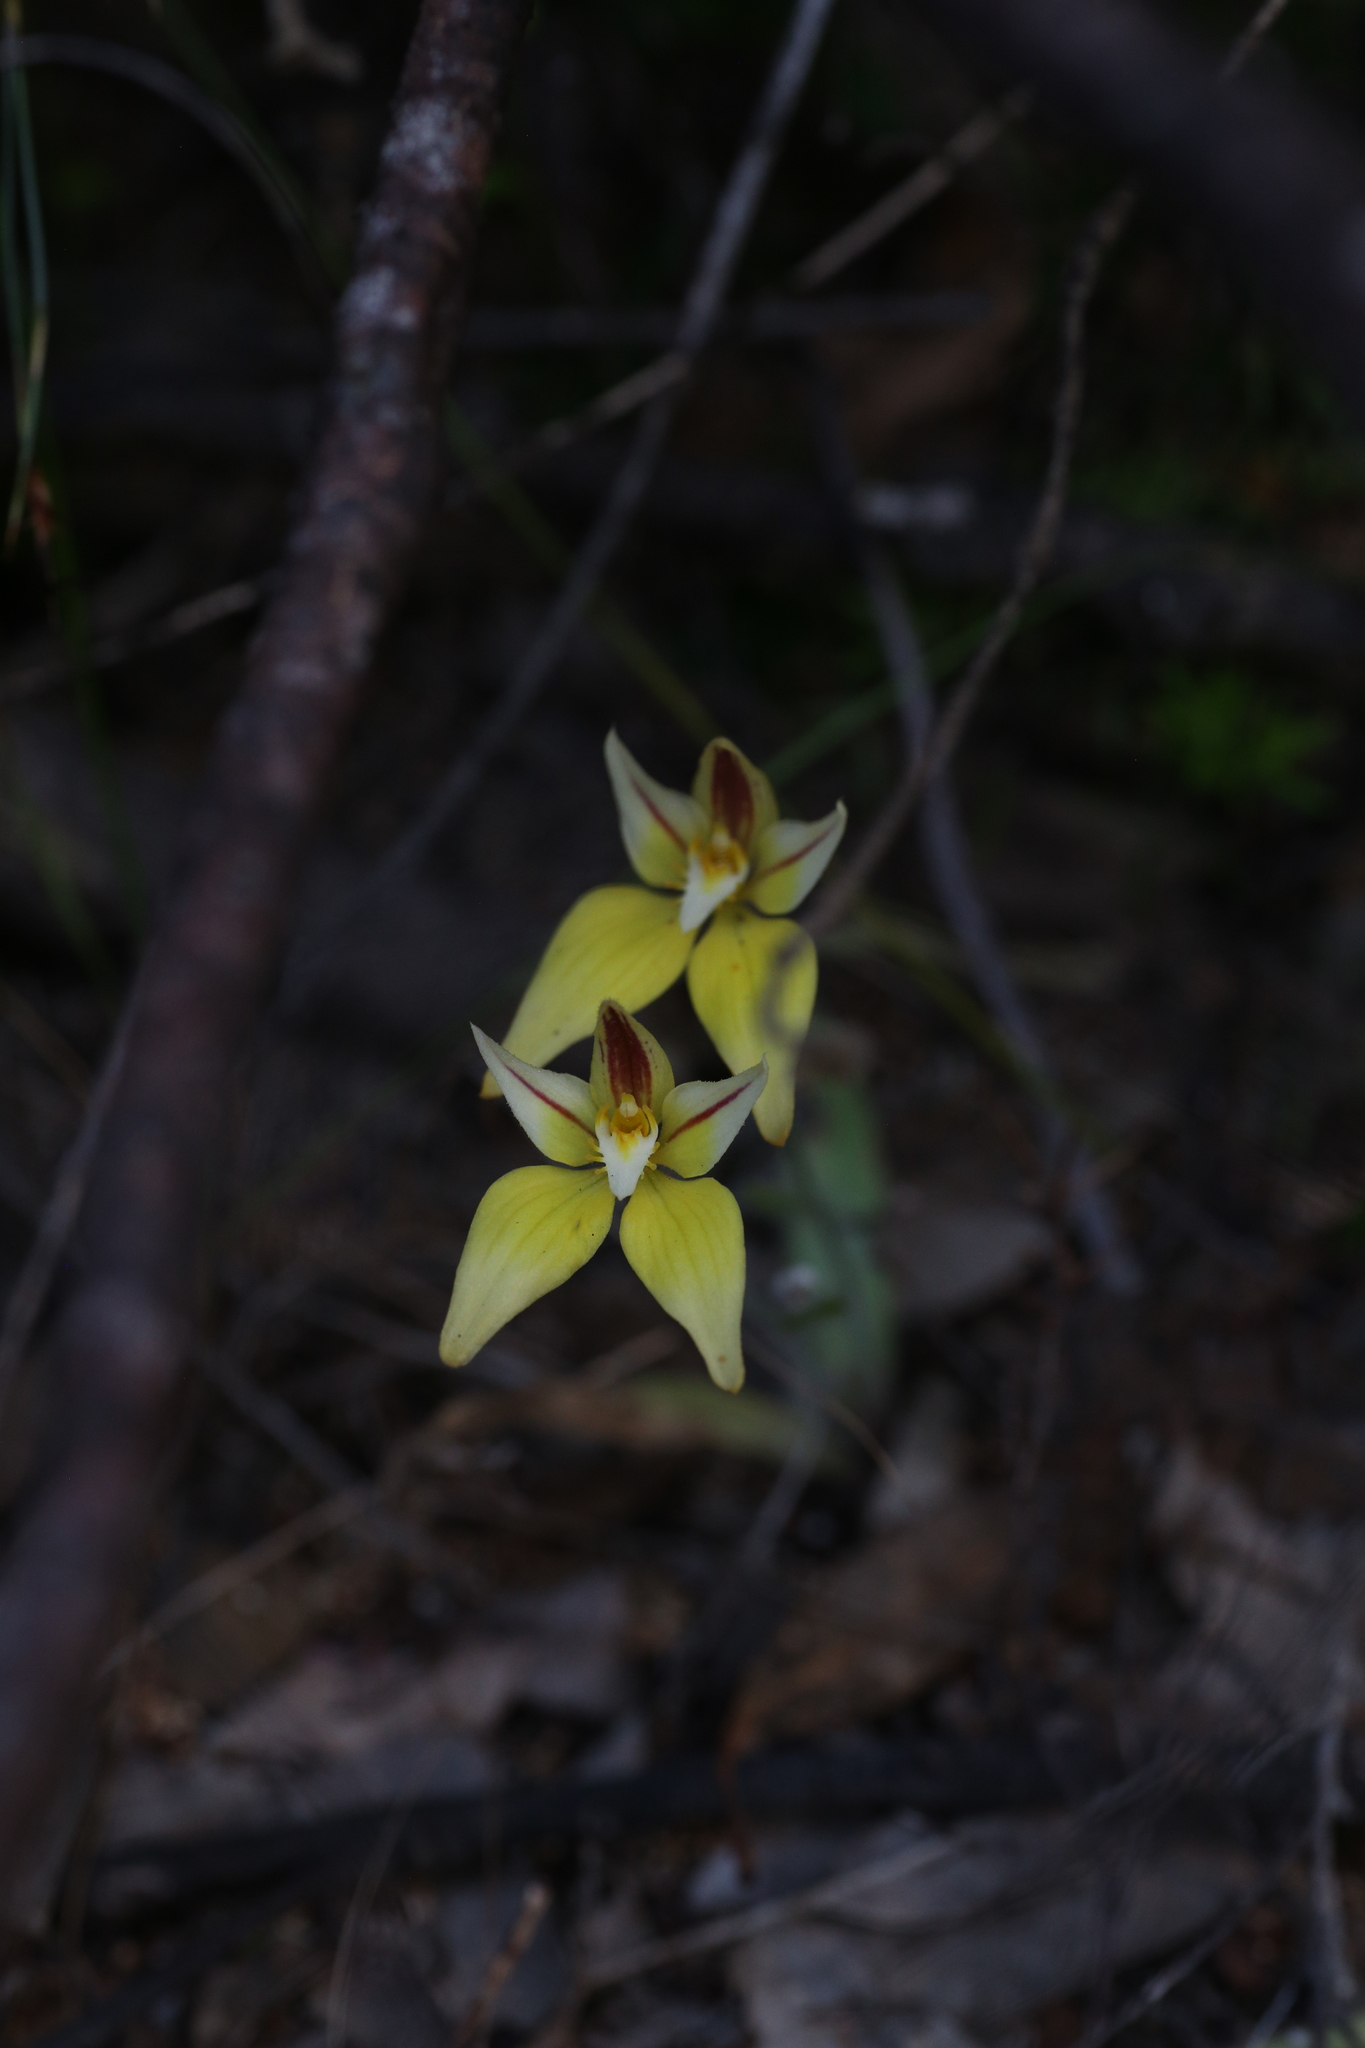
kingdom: Plantae
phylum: Tracheophyta
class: Liliopsida
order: Asparagales
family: Orchidaceae
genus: Caladenia
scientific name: Caladenia flava
